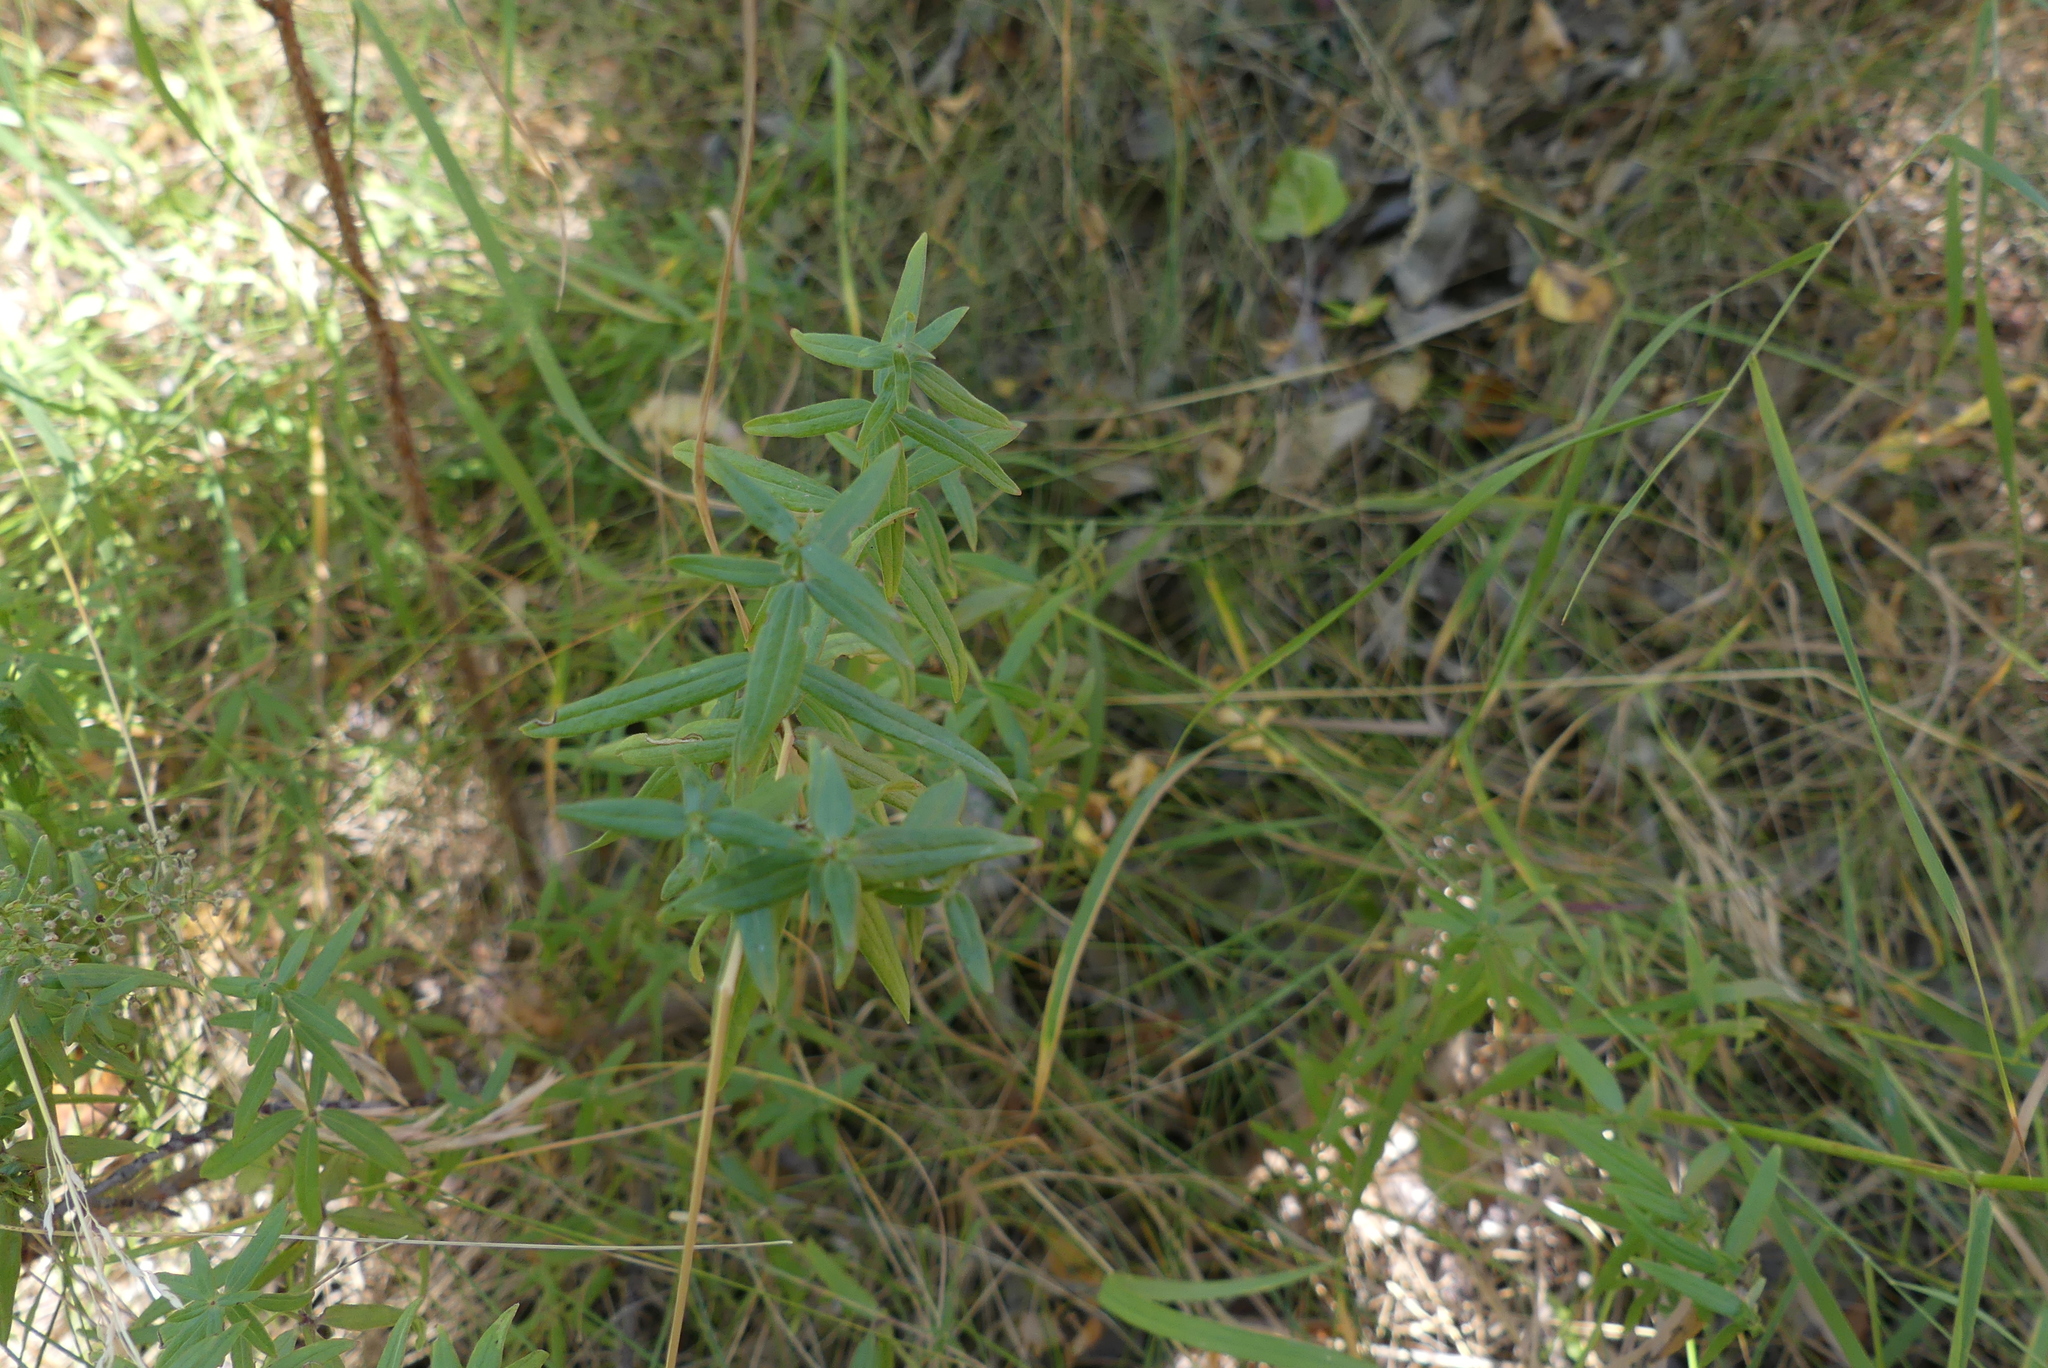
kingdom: Plantae
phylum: Tracheophyta
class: Magnoliopsida
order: Gentianales
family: Rubiaceae
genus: Galium
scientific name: Galium boreale
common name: Northern bedstraw
